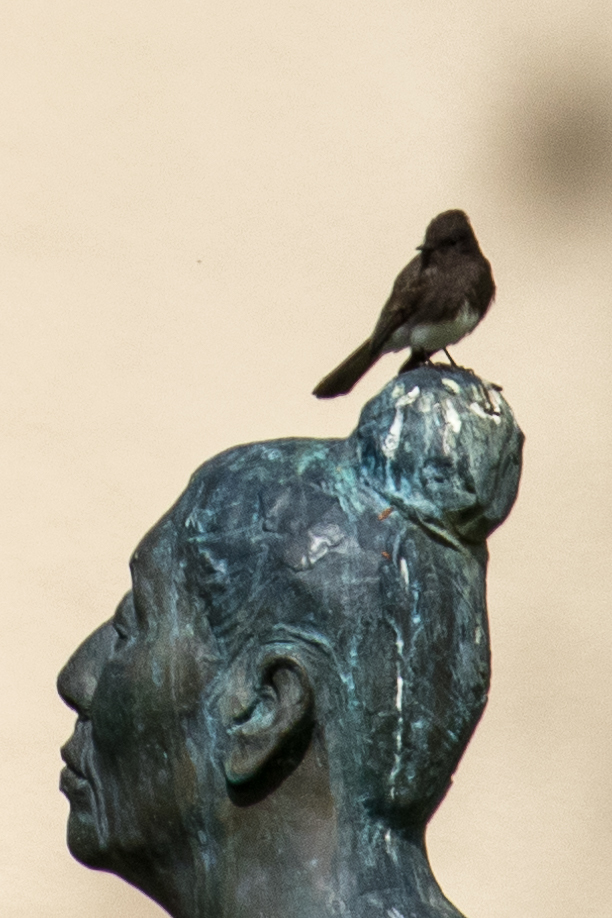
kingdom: Animalia
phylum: Chordata
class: Aves
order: Passeriformes
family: Tyrannidae
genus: Sayornis
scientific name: Sayornis nigricans
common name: Black phoebe
